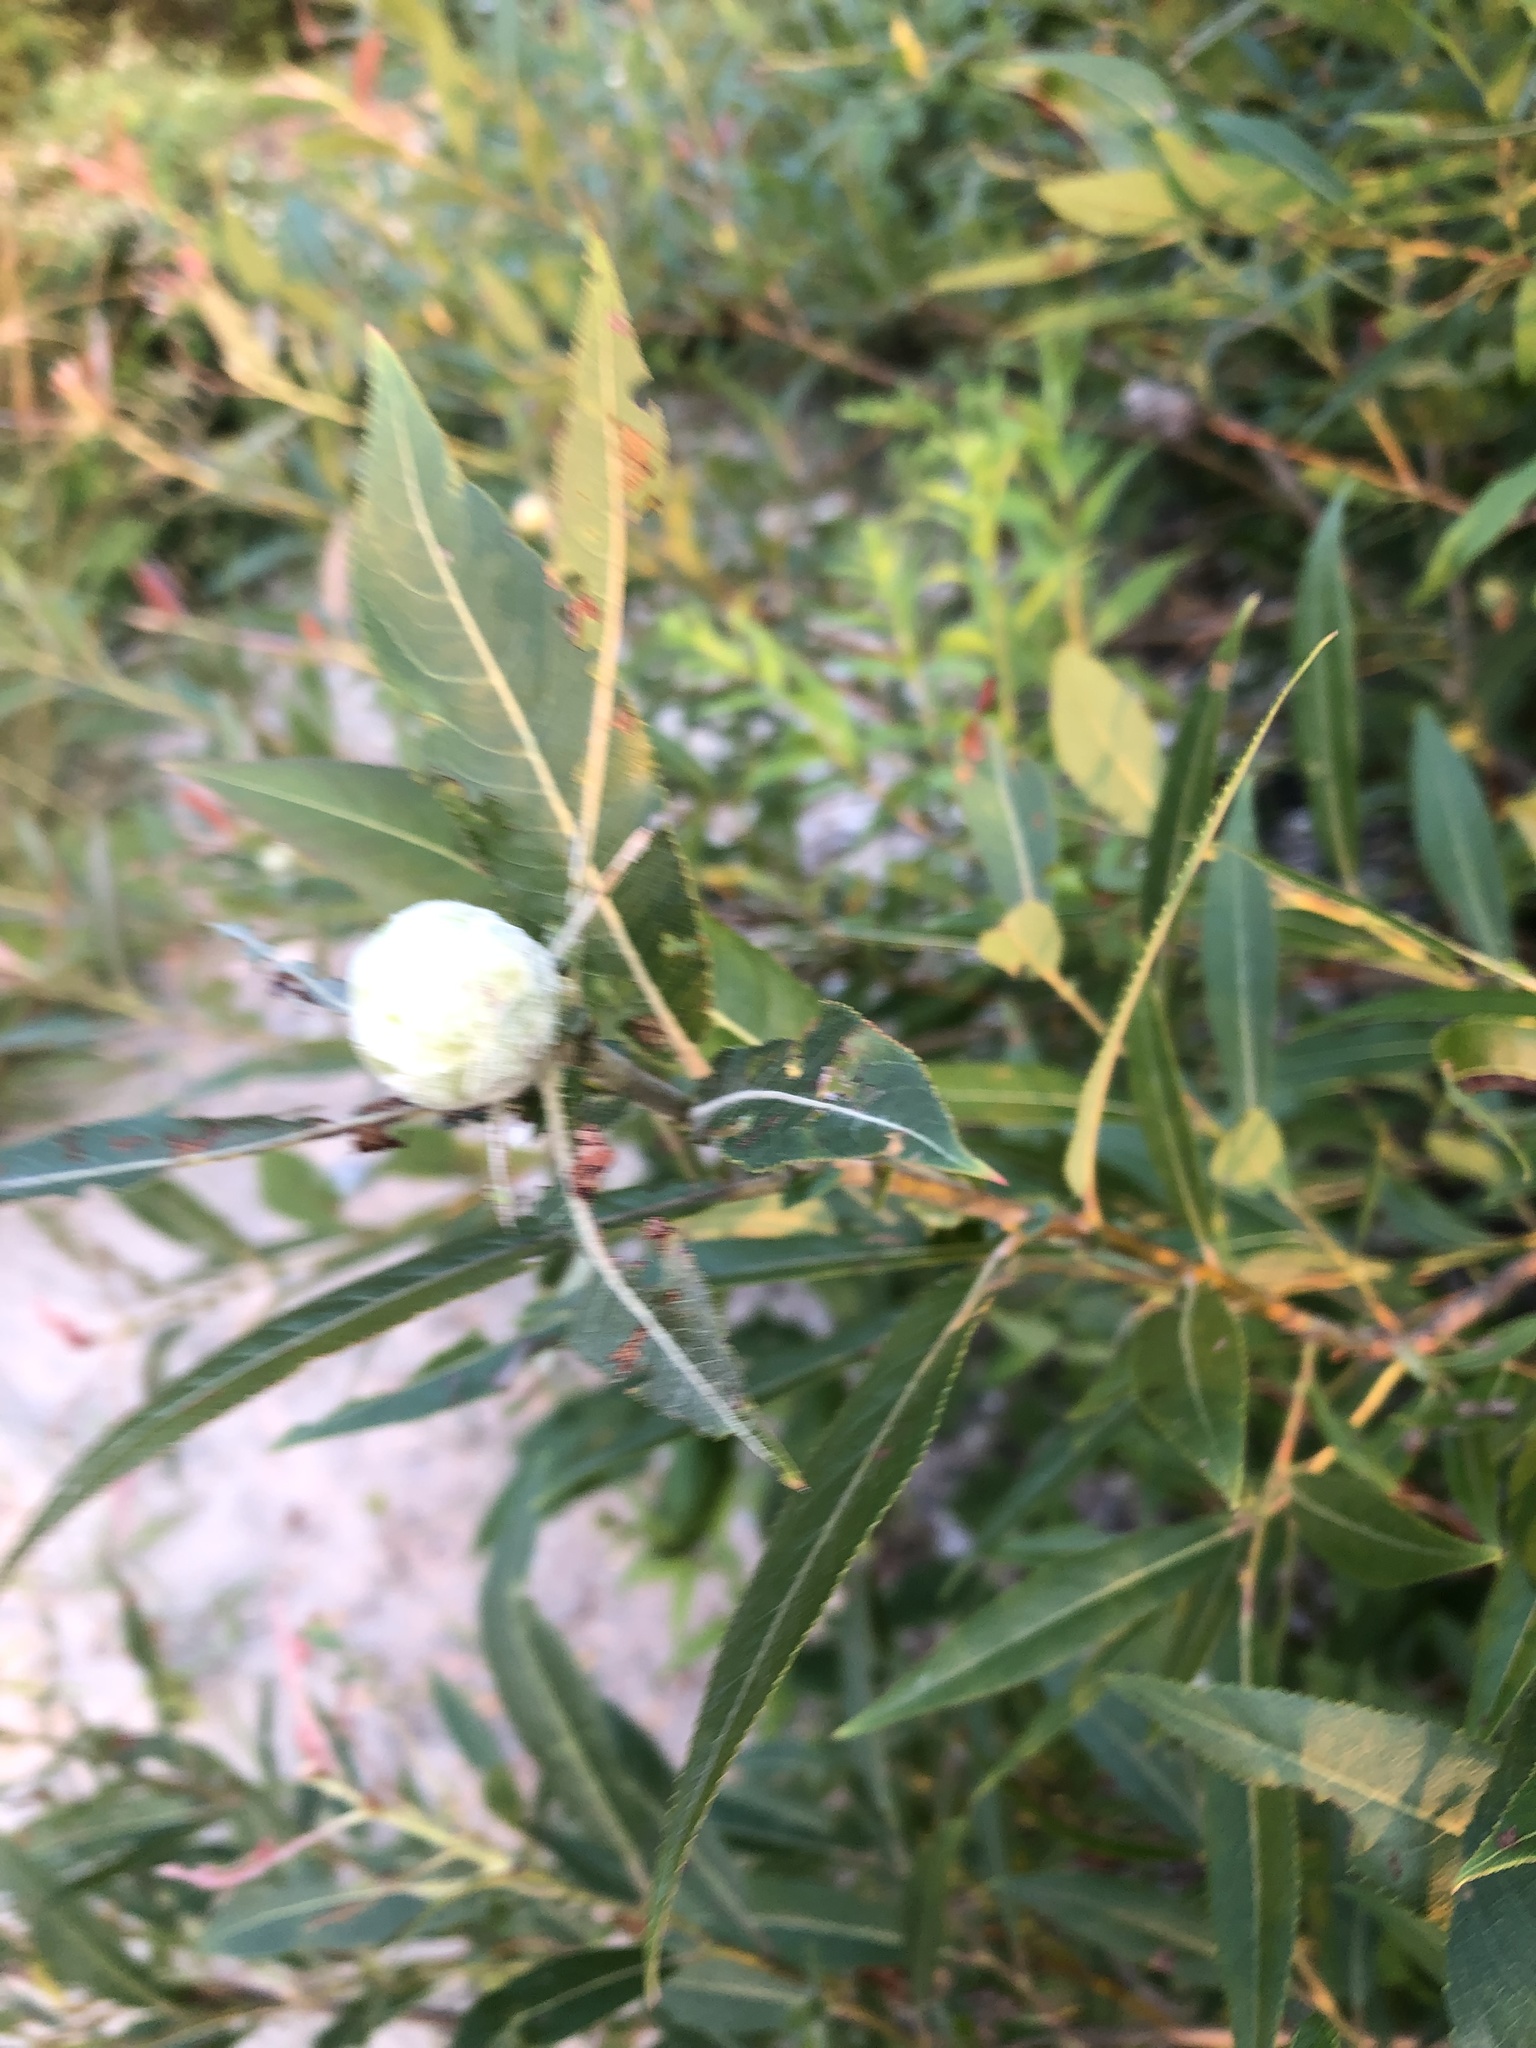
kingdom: Animalia
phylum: Arthropoda
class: Insecta
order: Diptera
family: Cecidomyiidae
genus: Rabdophaga
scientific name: Rabdophaga strobiloides
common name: Willow pinecone gall midge
